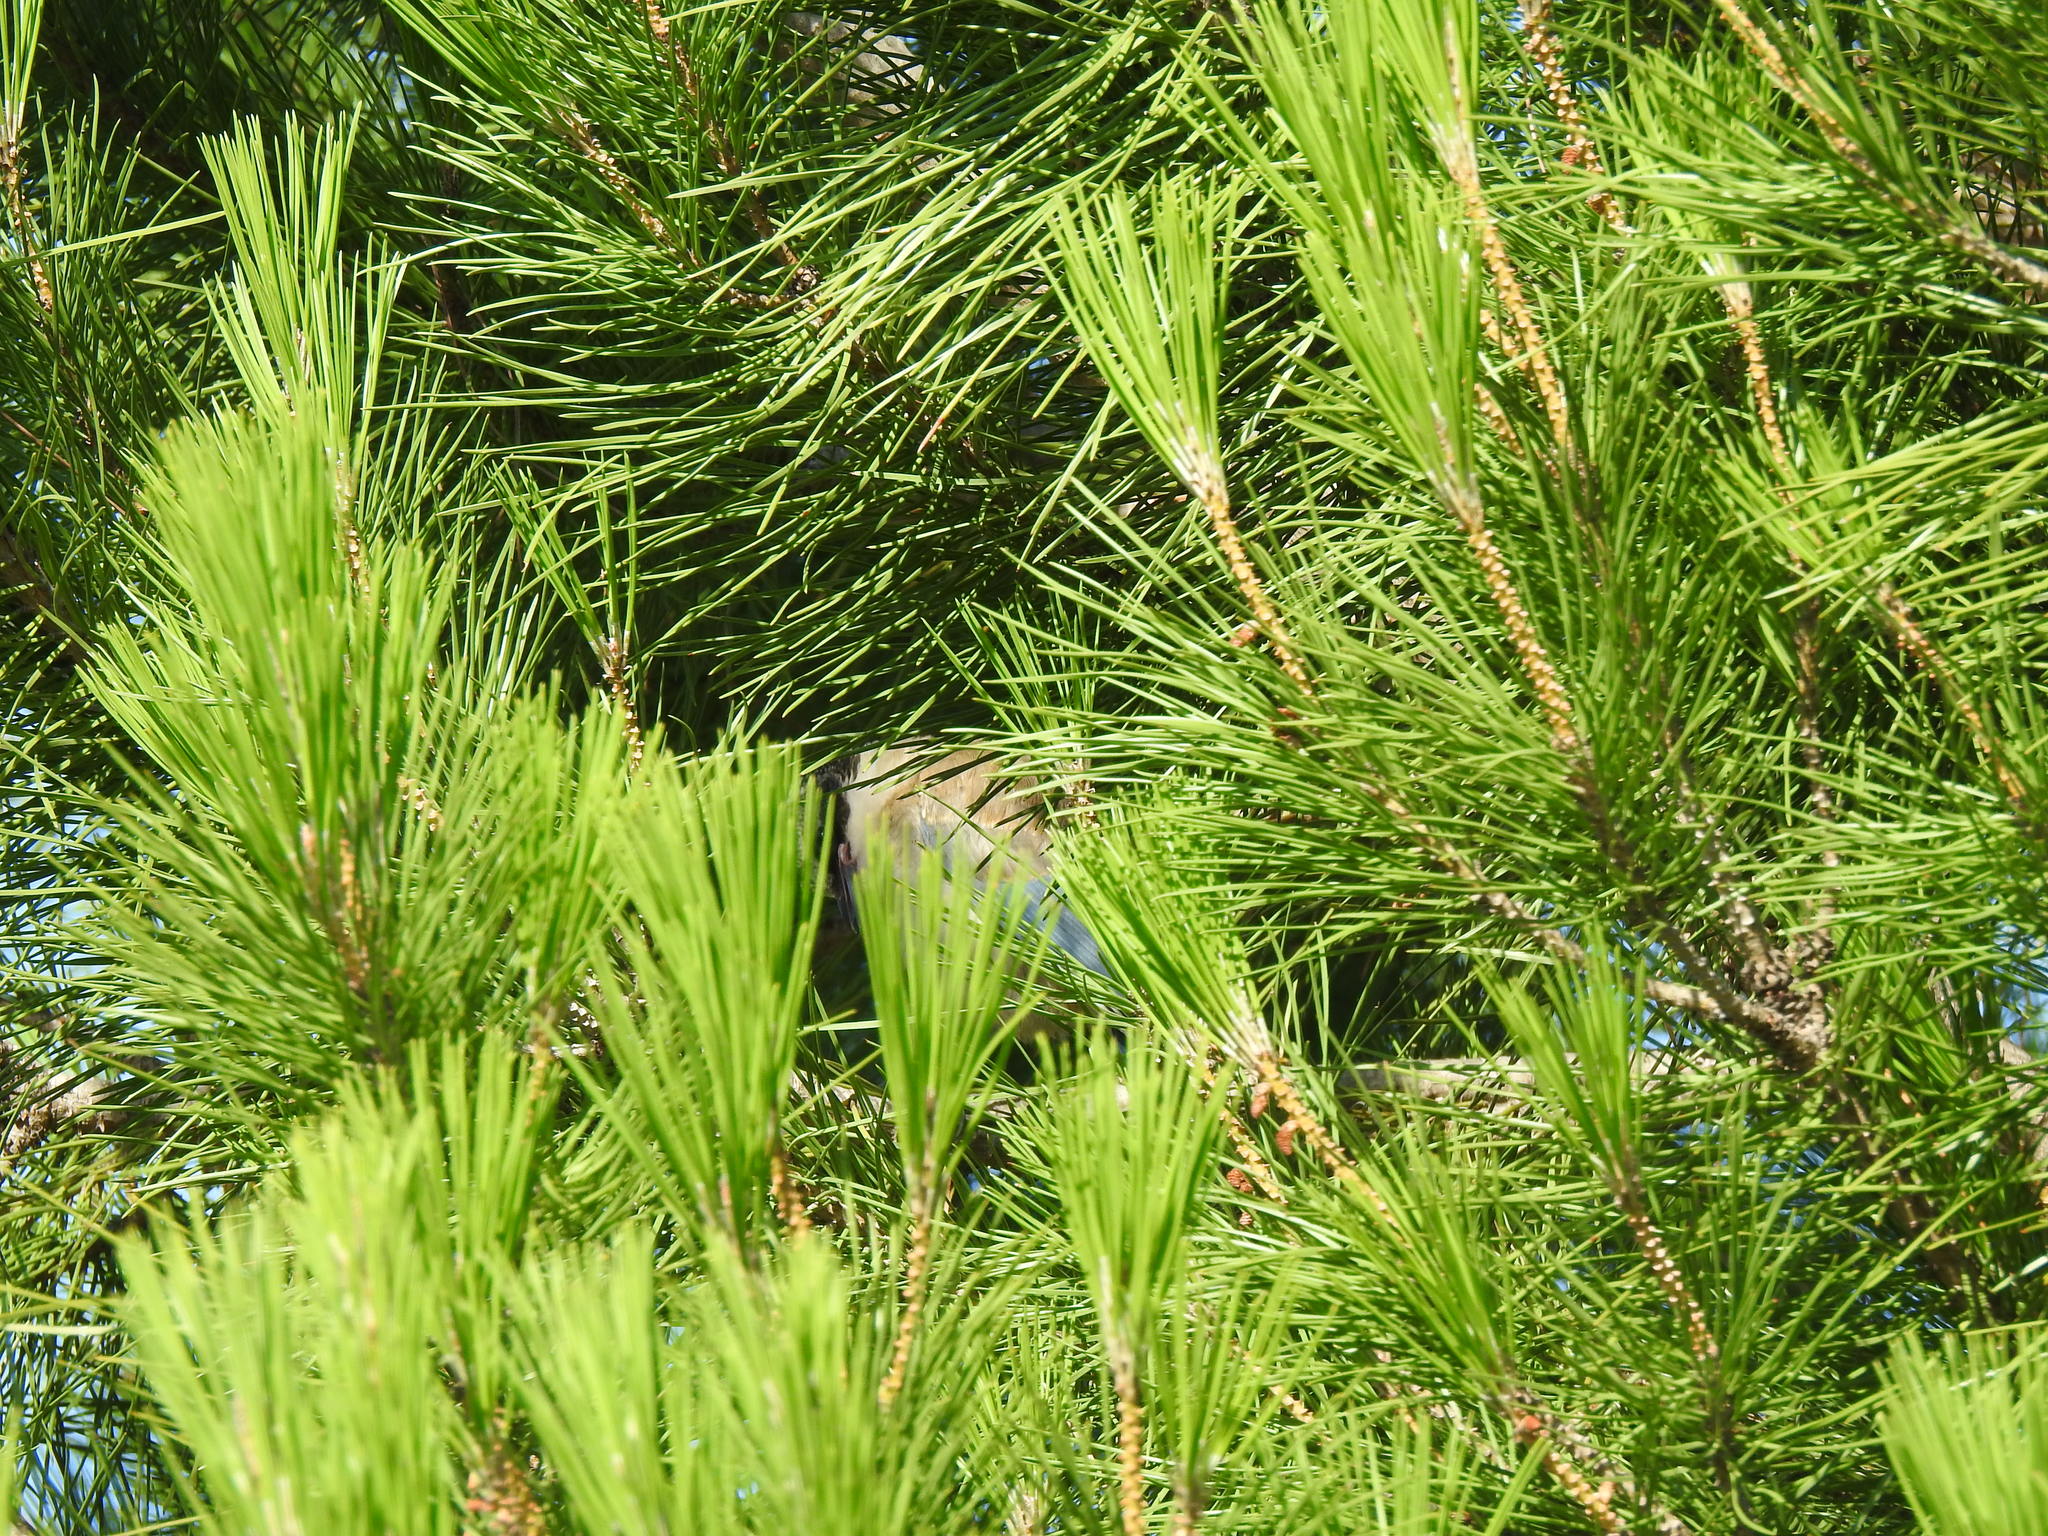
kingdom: Animalia
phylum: Chordata
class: Aves
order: Passeriformes
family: Corvidae
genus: Cyanopica
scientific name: Cyanopica cooki
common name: Iberian magpie
